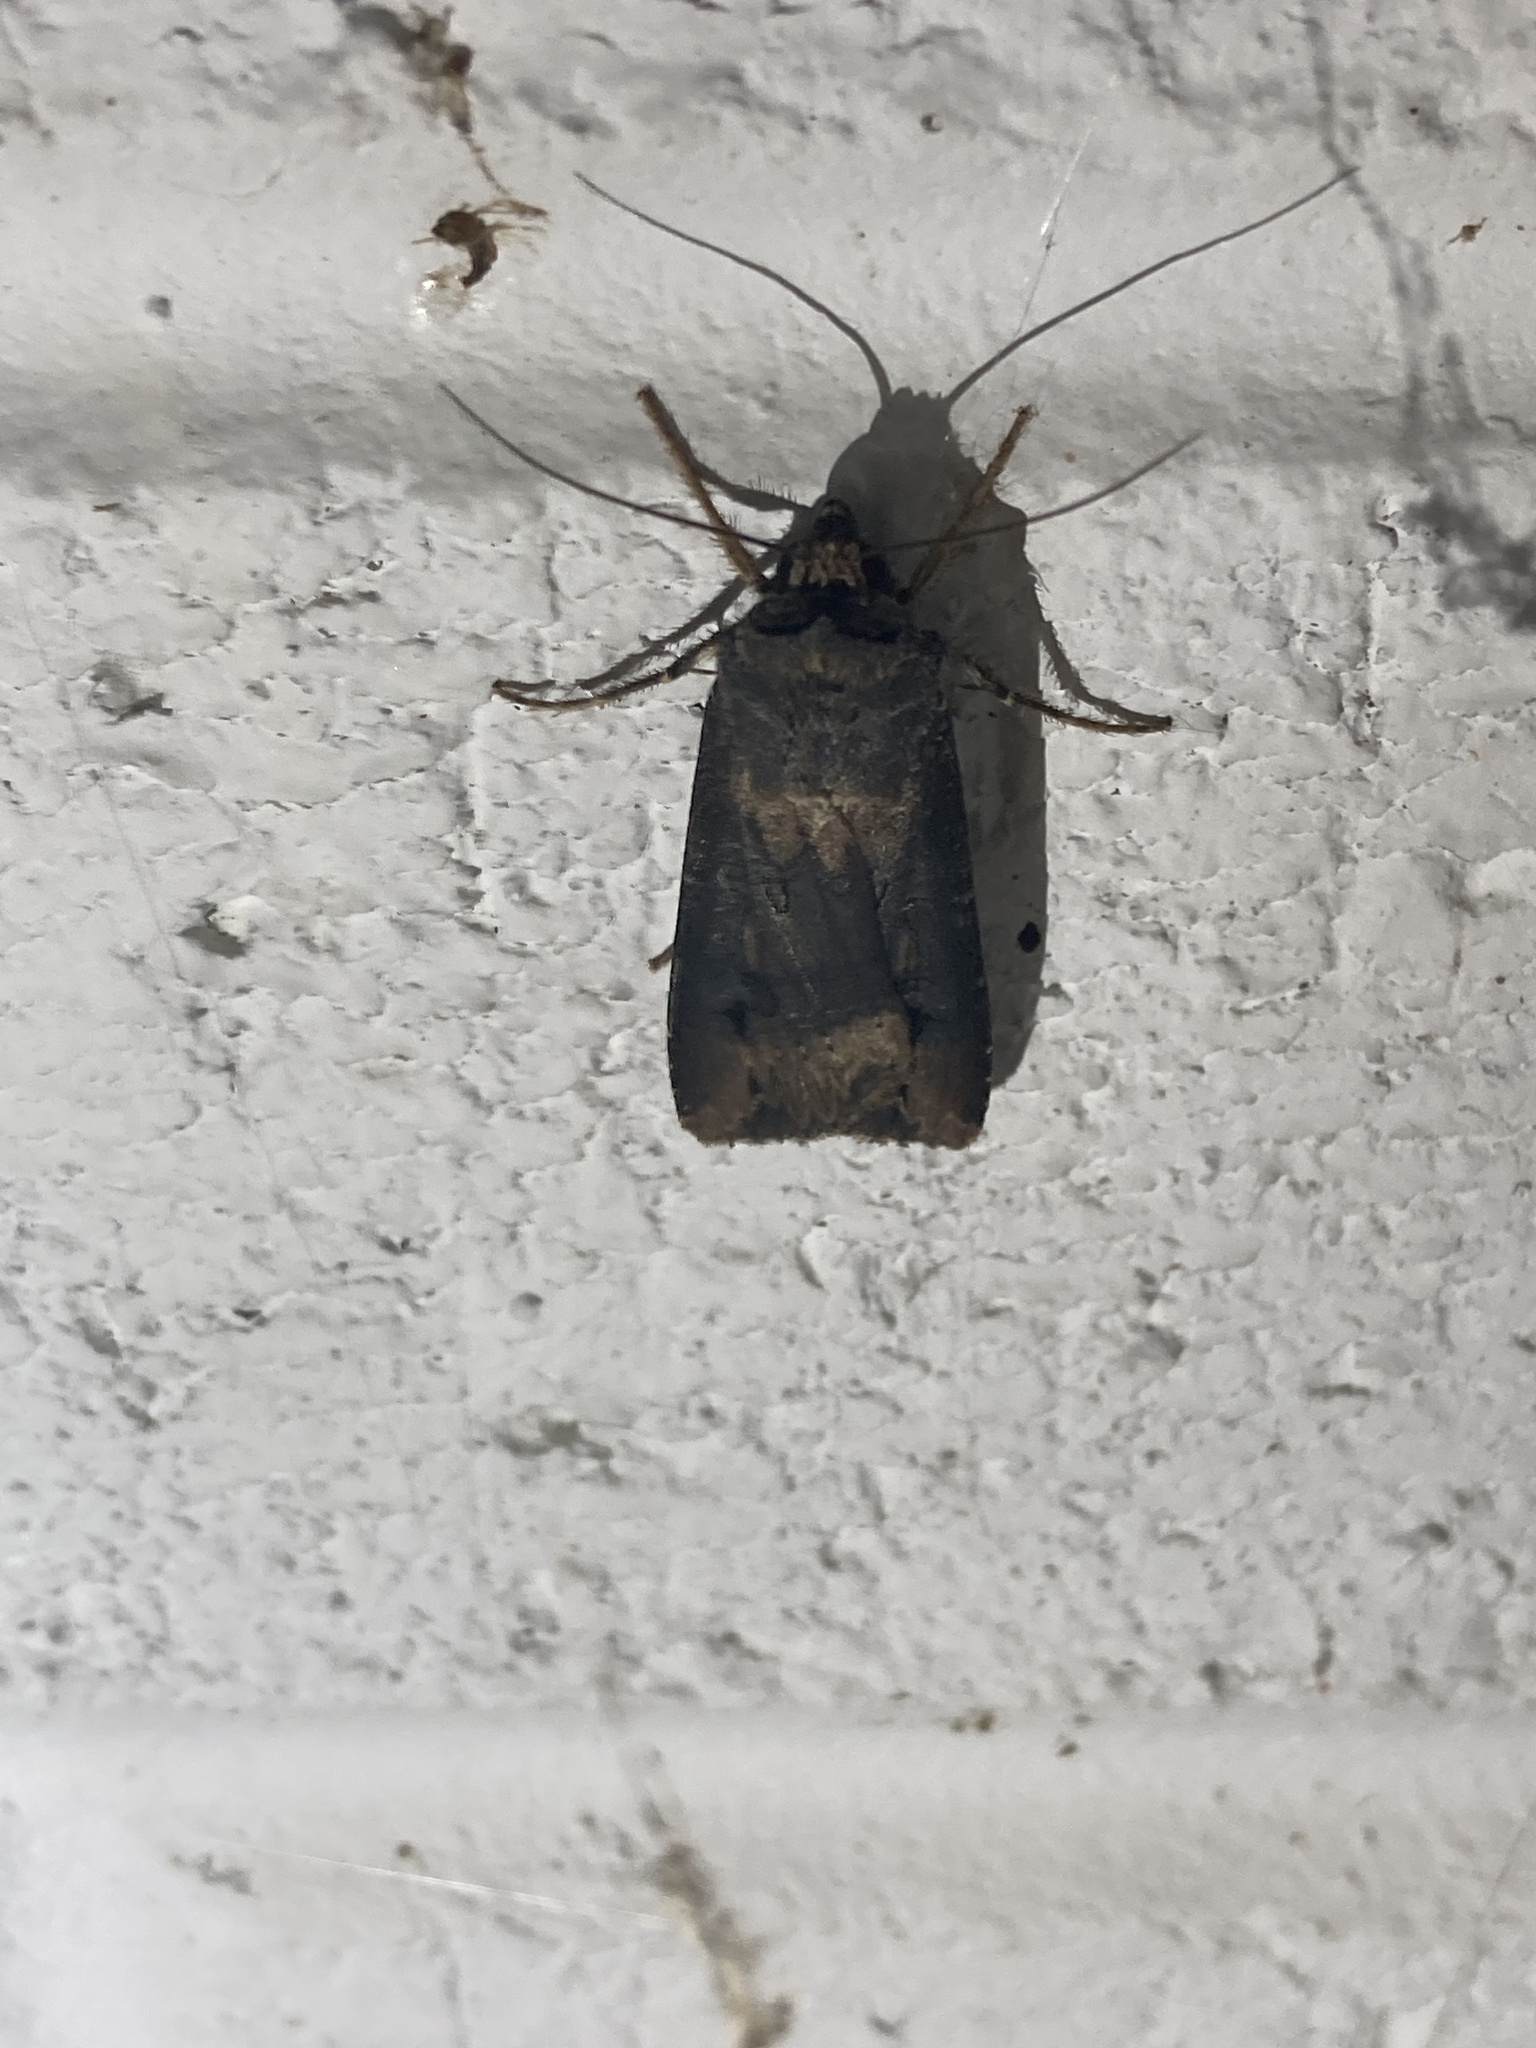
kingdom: Animalia
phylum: Arthropoda
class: Insecta
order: Lepidoptera
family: Noctuidae
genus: Agrotis
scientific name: Agrotis ipsilon
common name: Dark sword-grass
